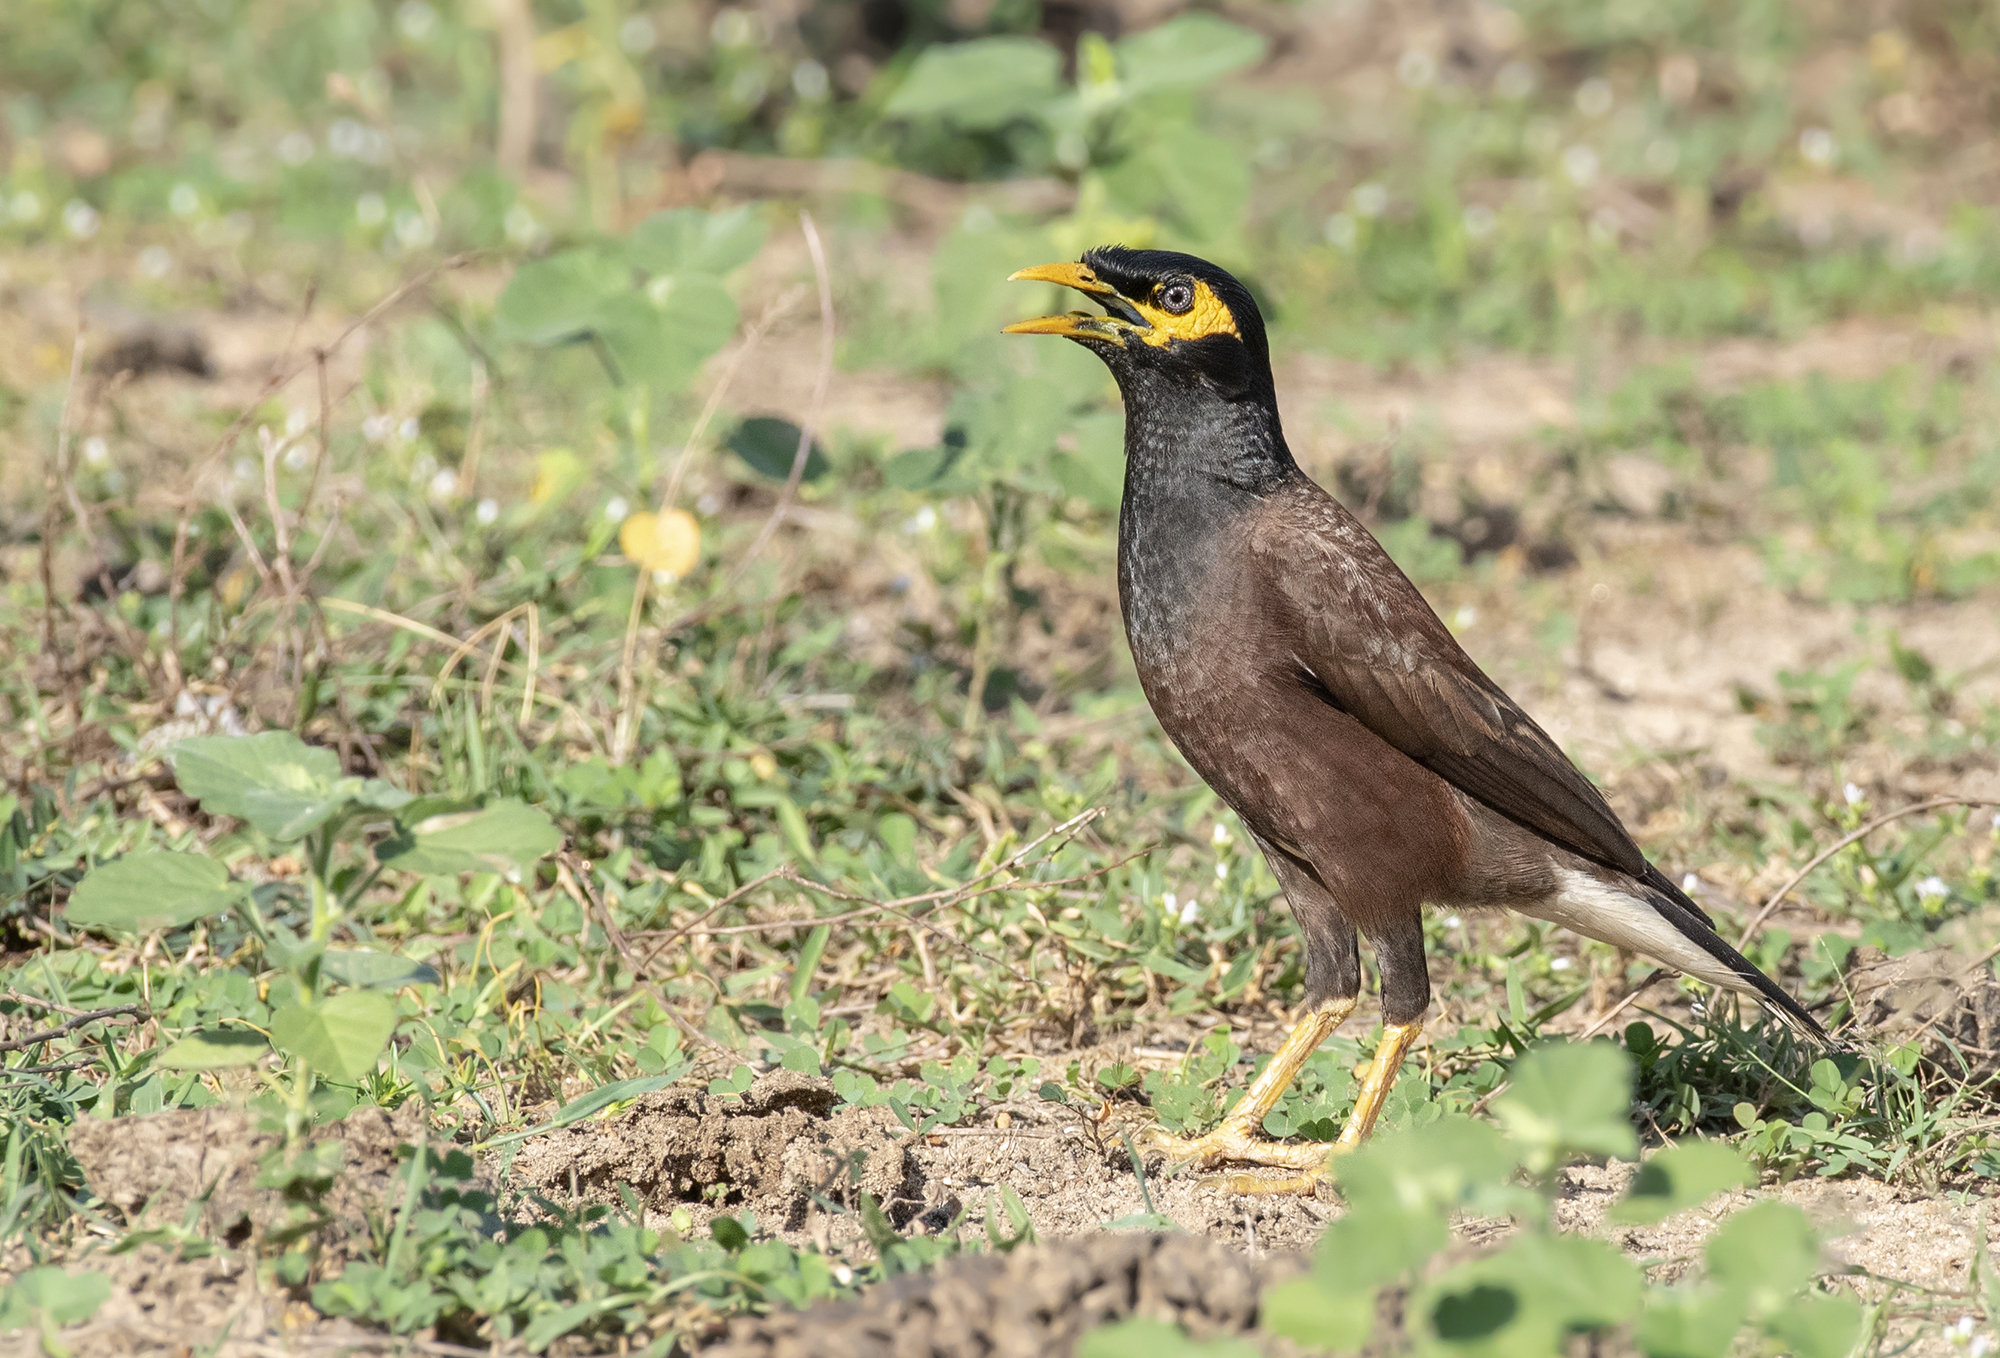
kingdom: Animalia
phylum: Chordata
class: Aves
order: Passeriformes
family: Sturnidae
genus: Acridotheres
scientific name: Acridotheres tristis
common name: Common myna
